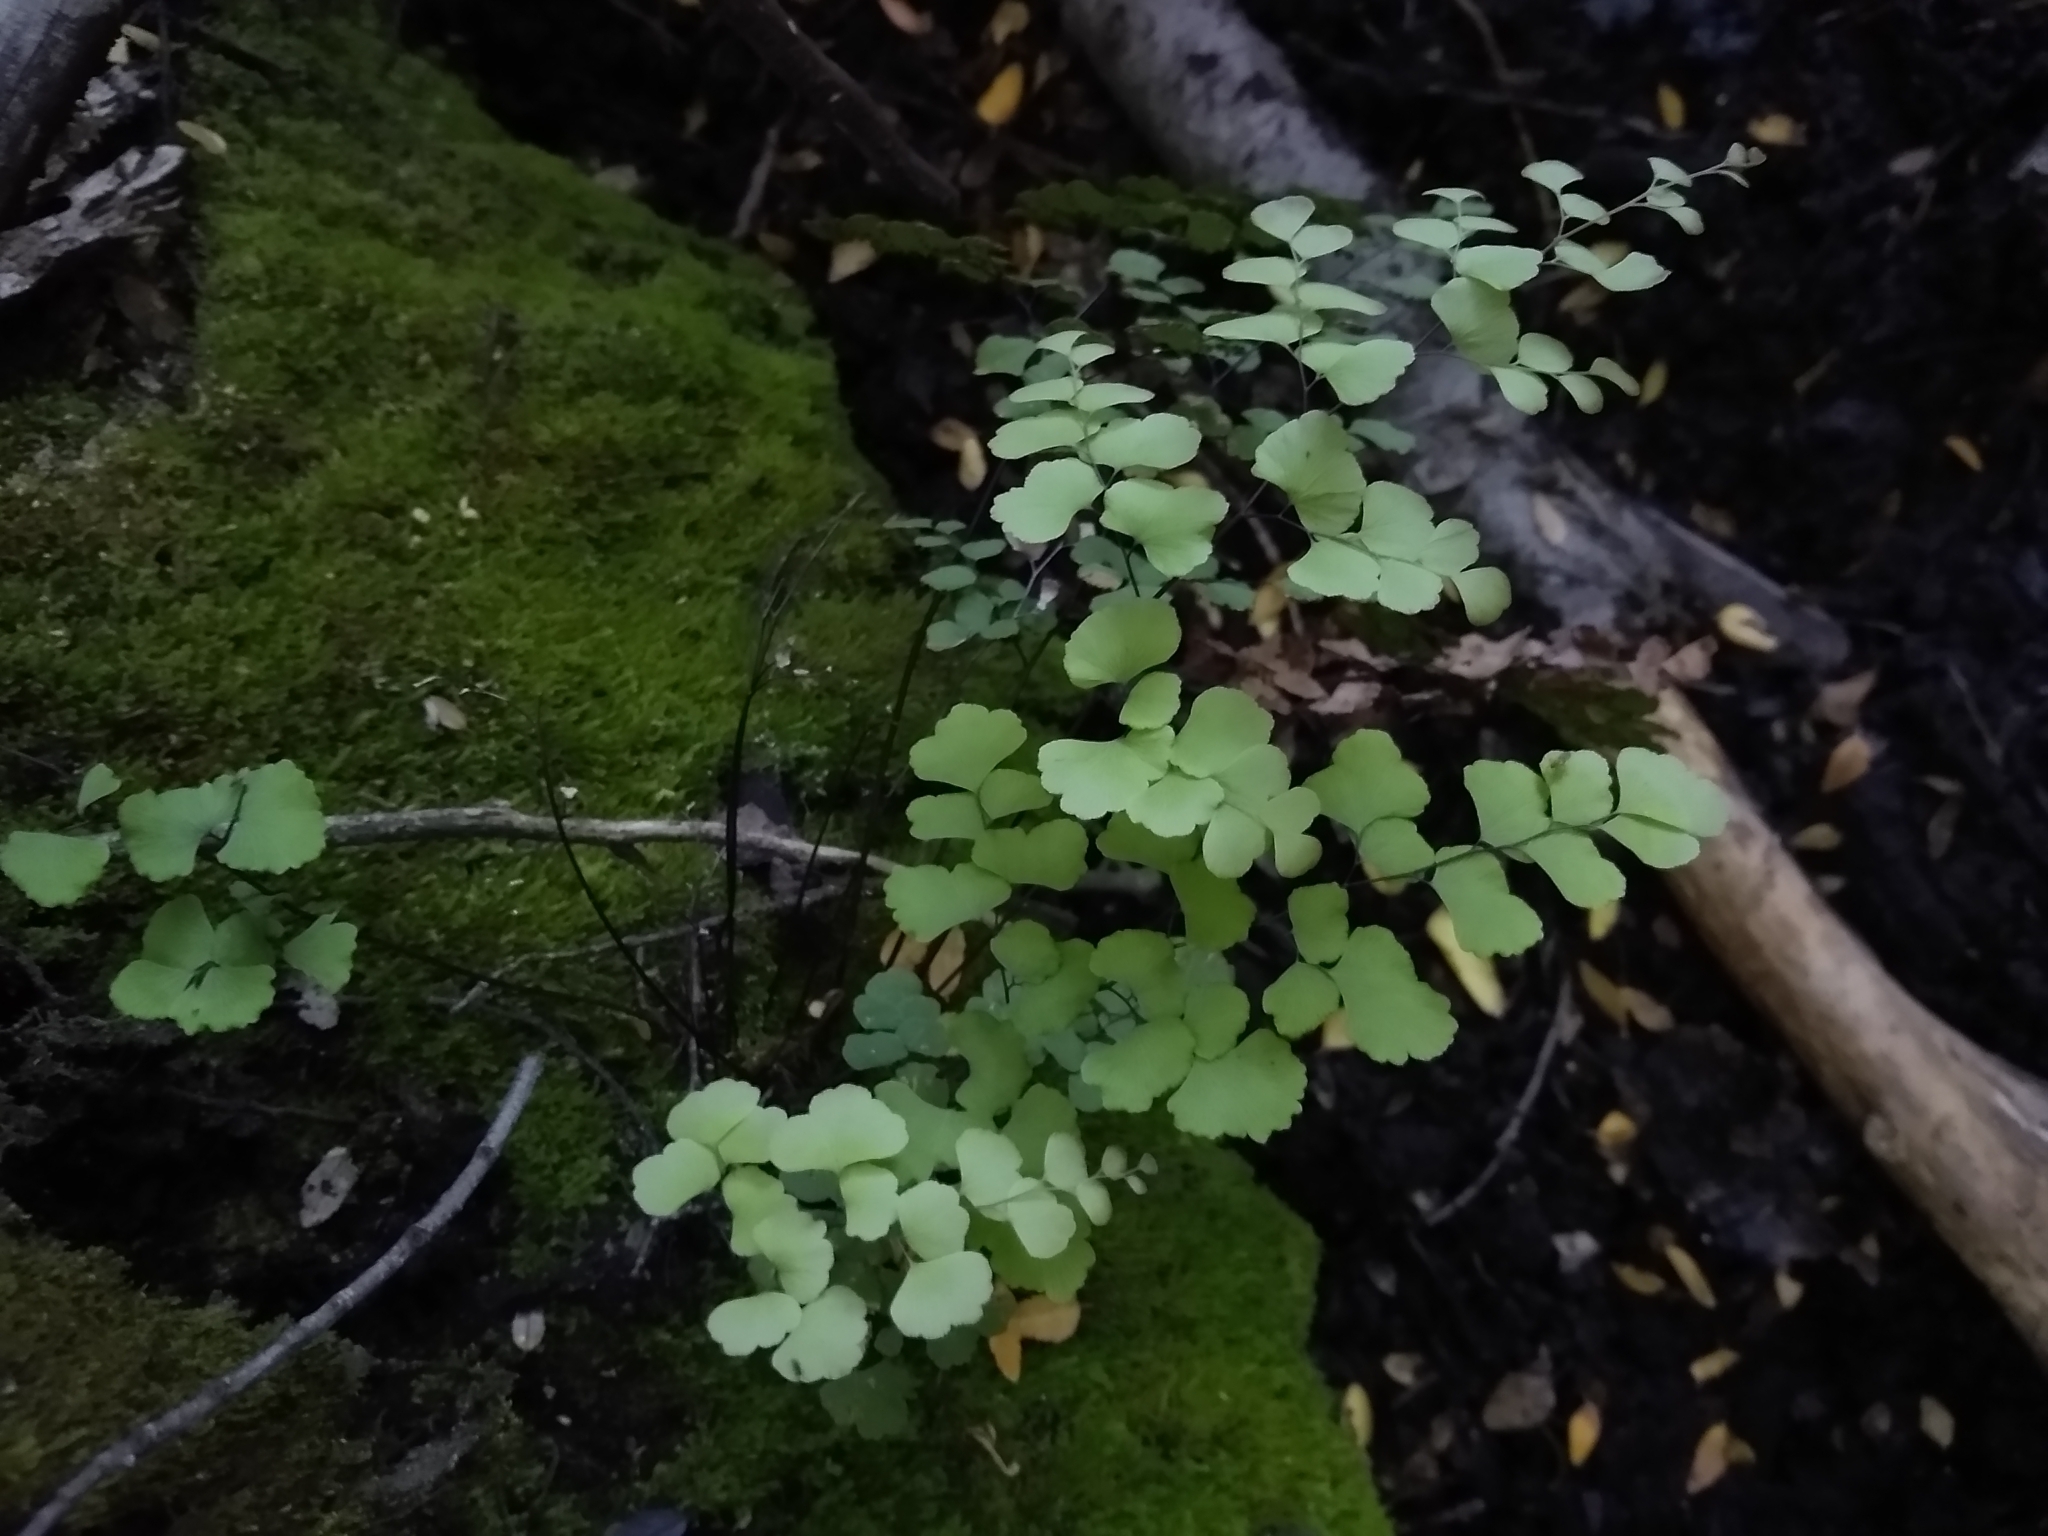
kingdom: Plantae
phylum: Tracheophyta
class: Polypodiopsida
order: Polypodiales
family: Pteridaceae
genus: Adiantum
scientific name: Adiantum chilense
